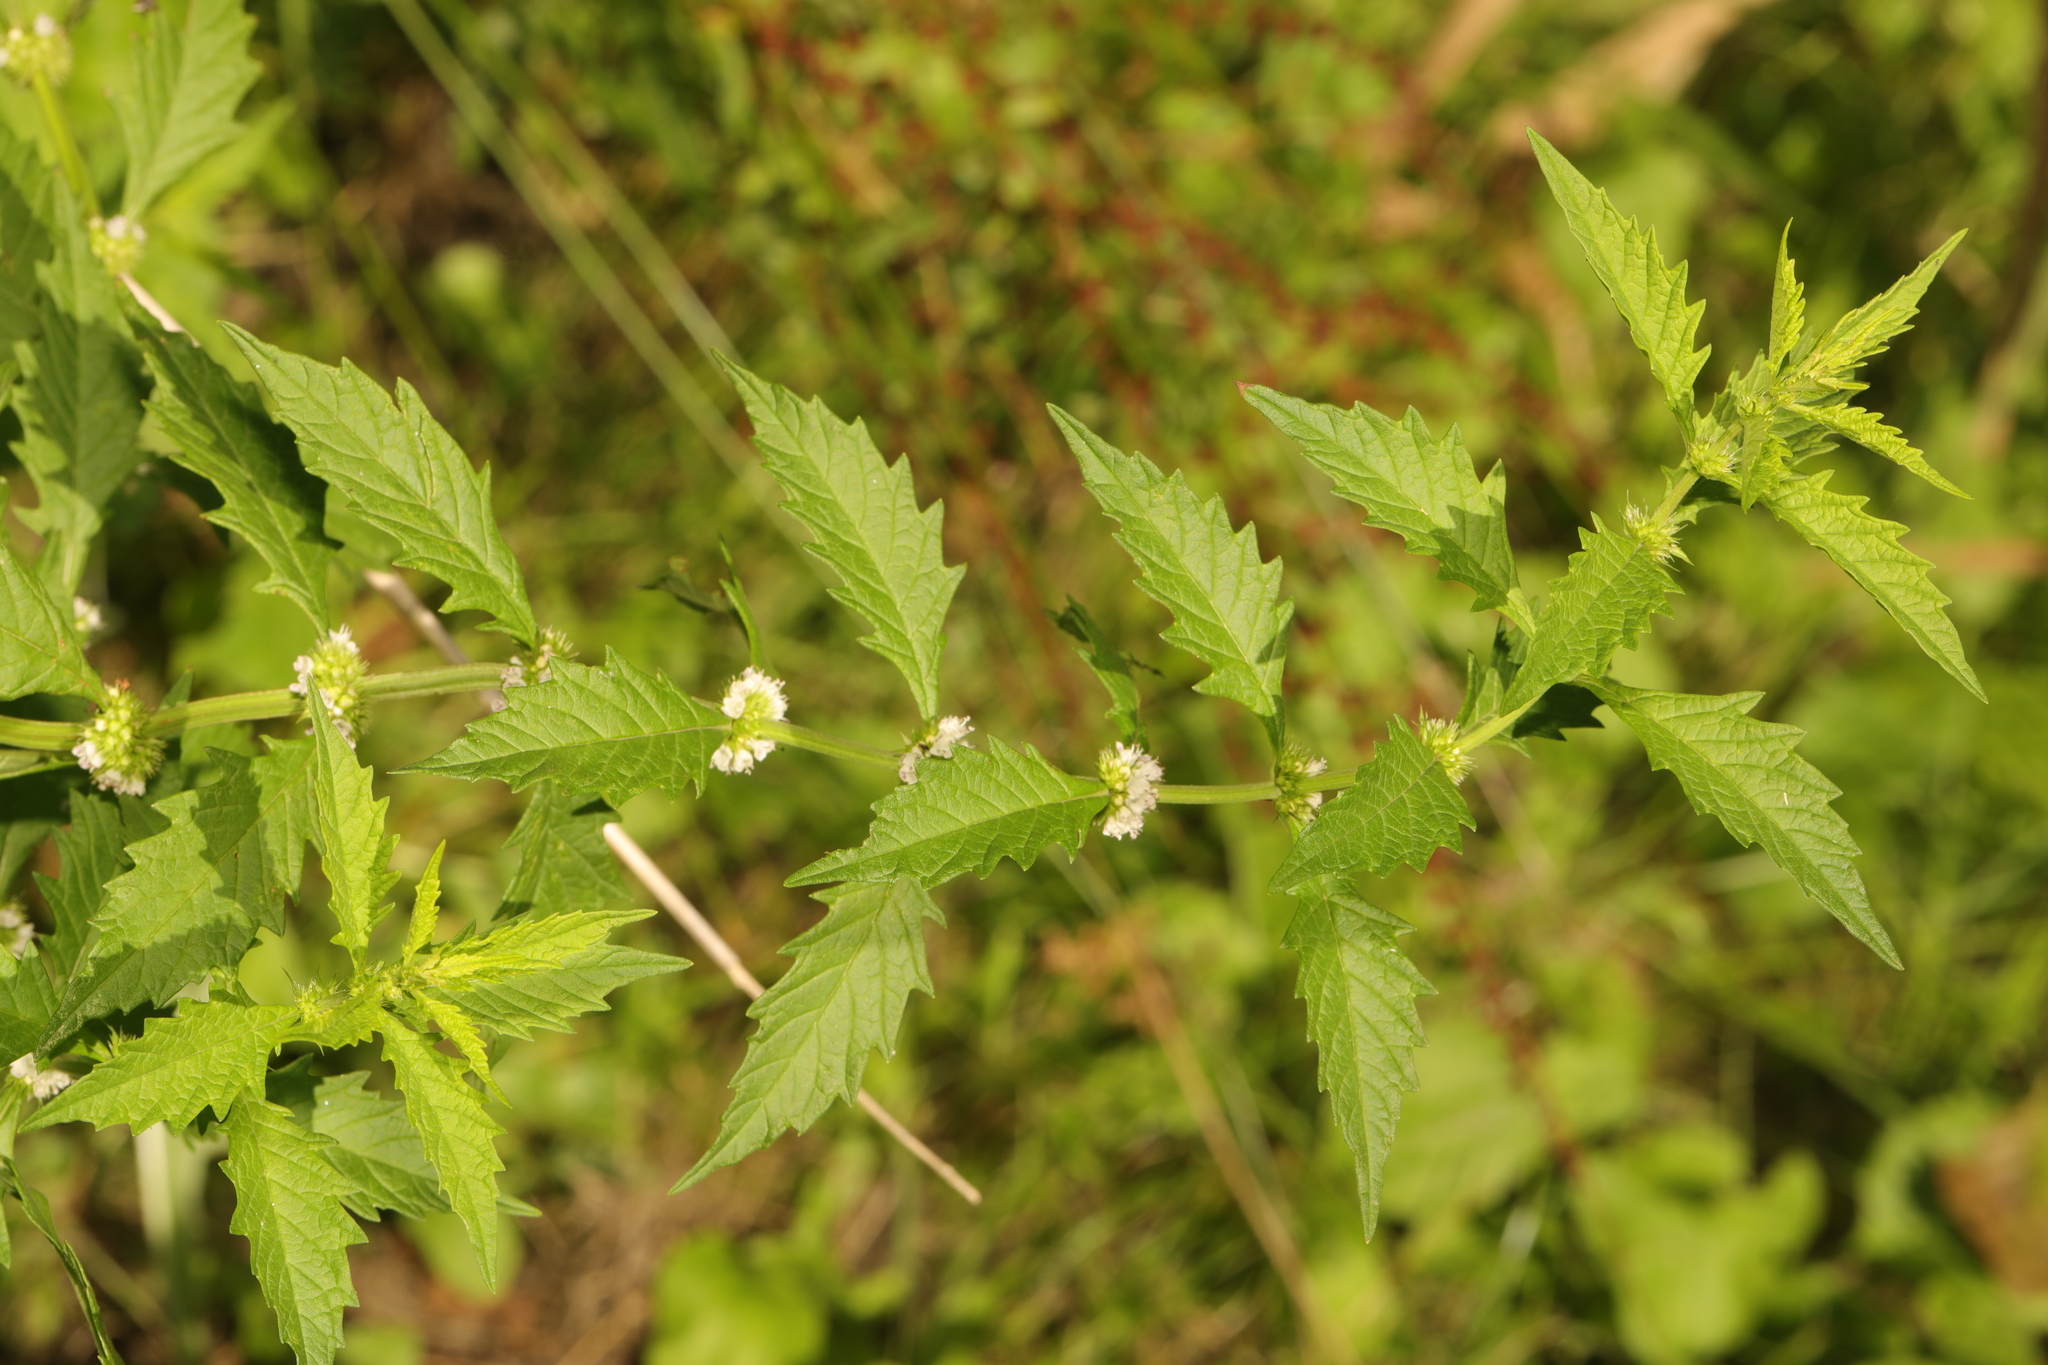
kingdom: Plantae
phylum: Tracheophyta
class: Magnoliopsida
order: Lamiales
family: Lamiaceae
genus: Lycopus
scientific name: Lycopus europaeus
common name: European bugleweed
